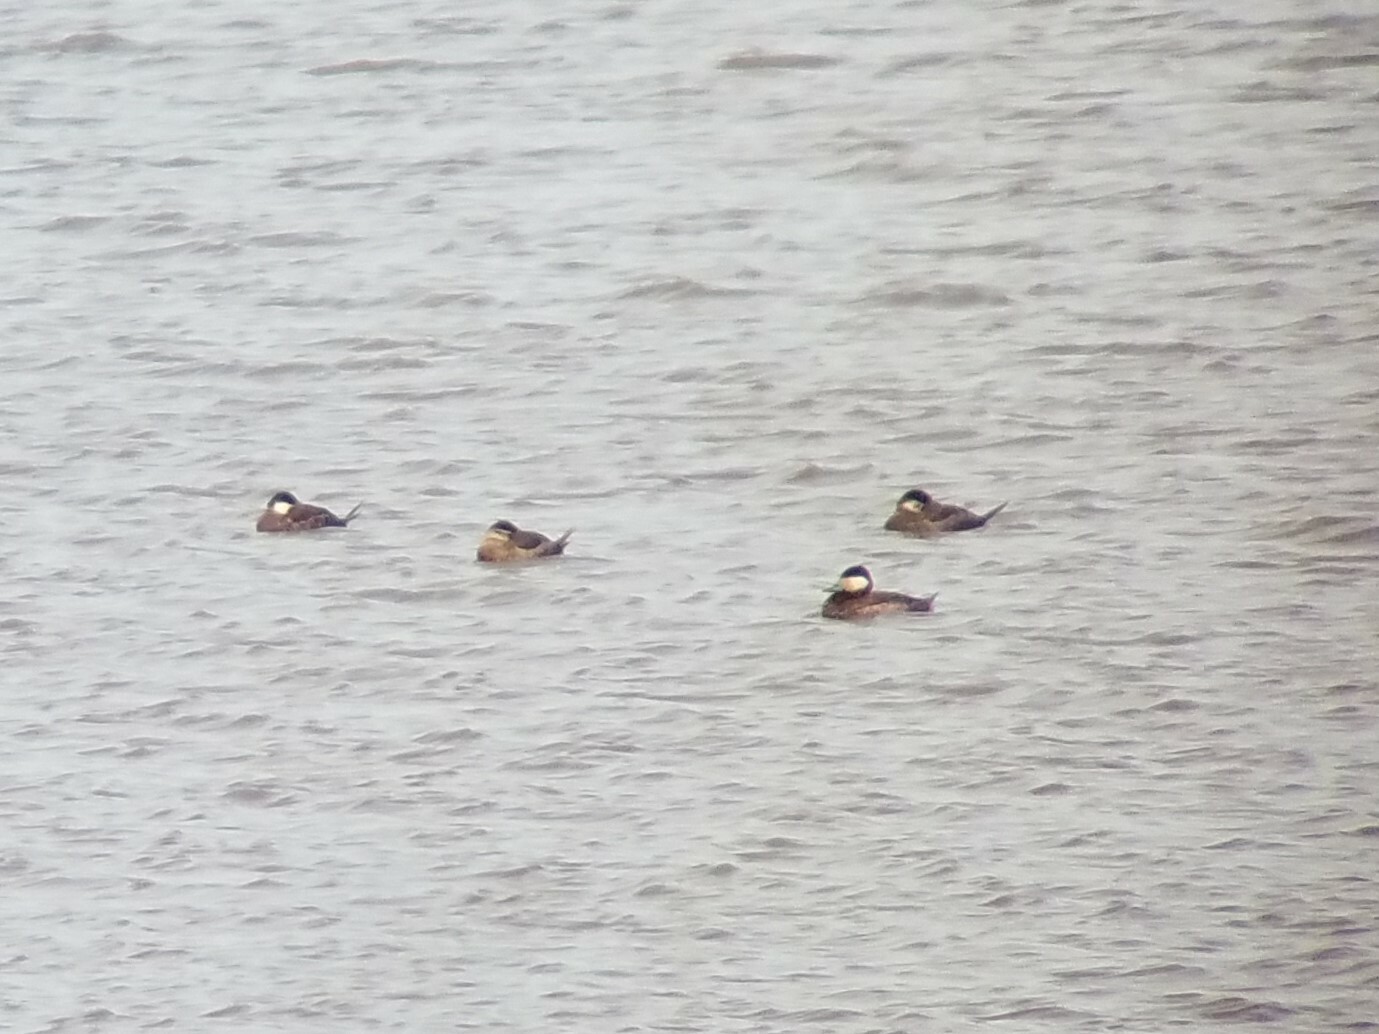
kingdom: Animalia
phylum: Chordata
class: Aves
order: Anseriformes
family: Anatidae
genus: Oxyura
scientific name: Oxyura jamaicensis
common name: Ruddy duck
